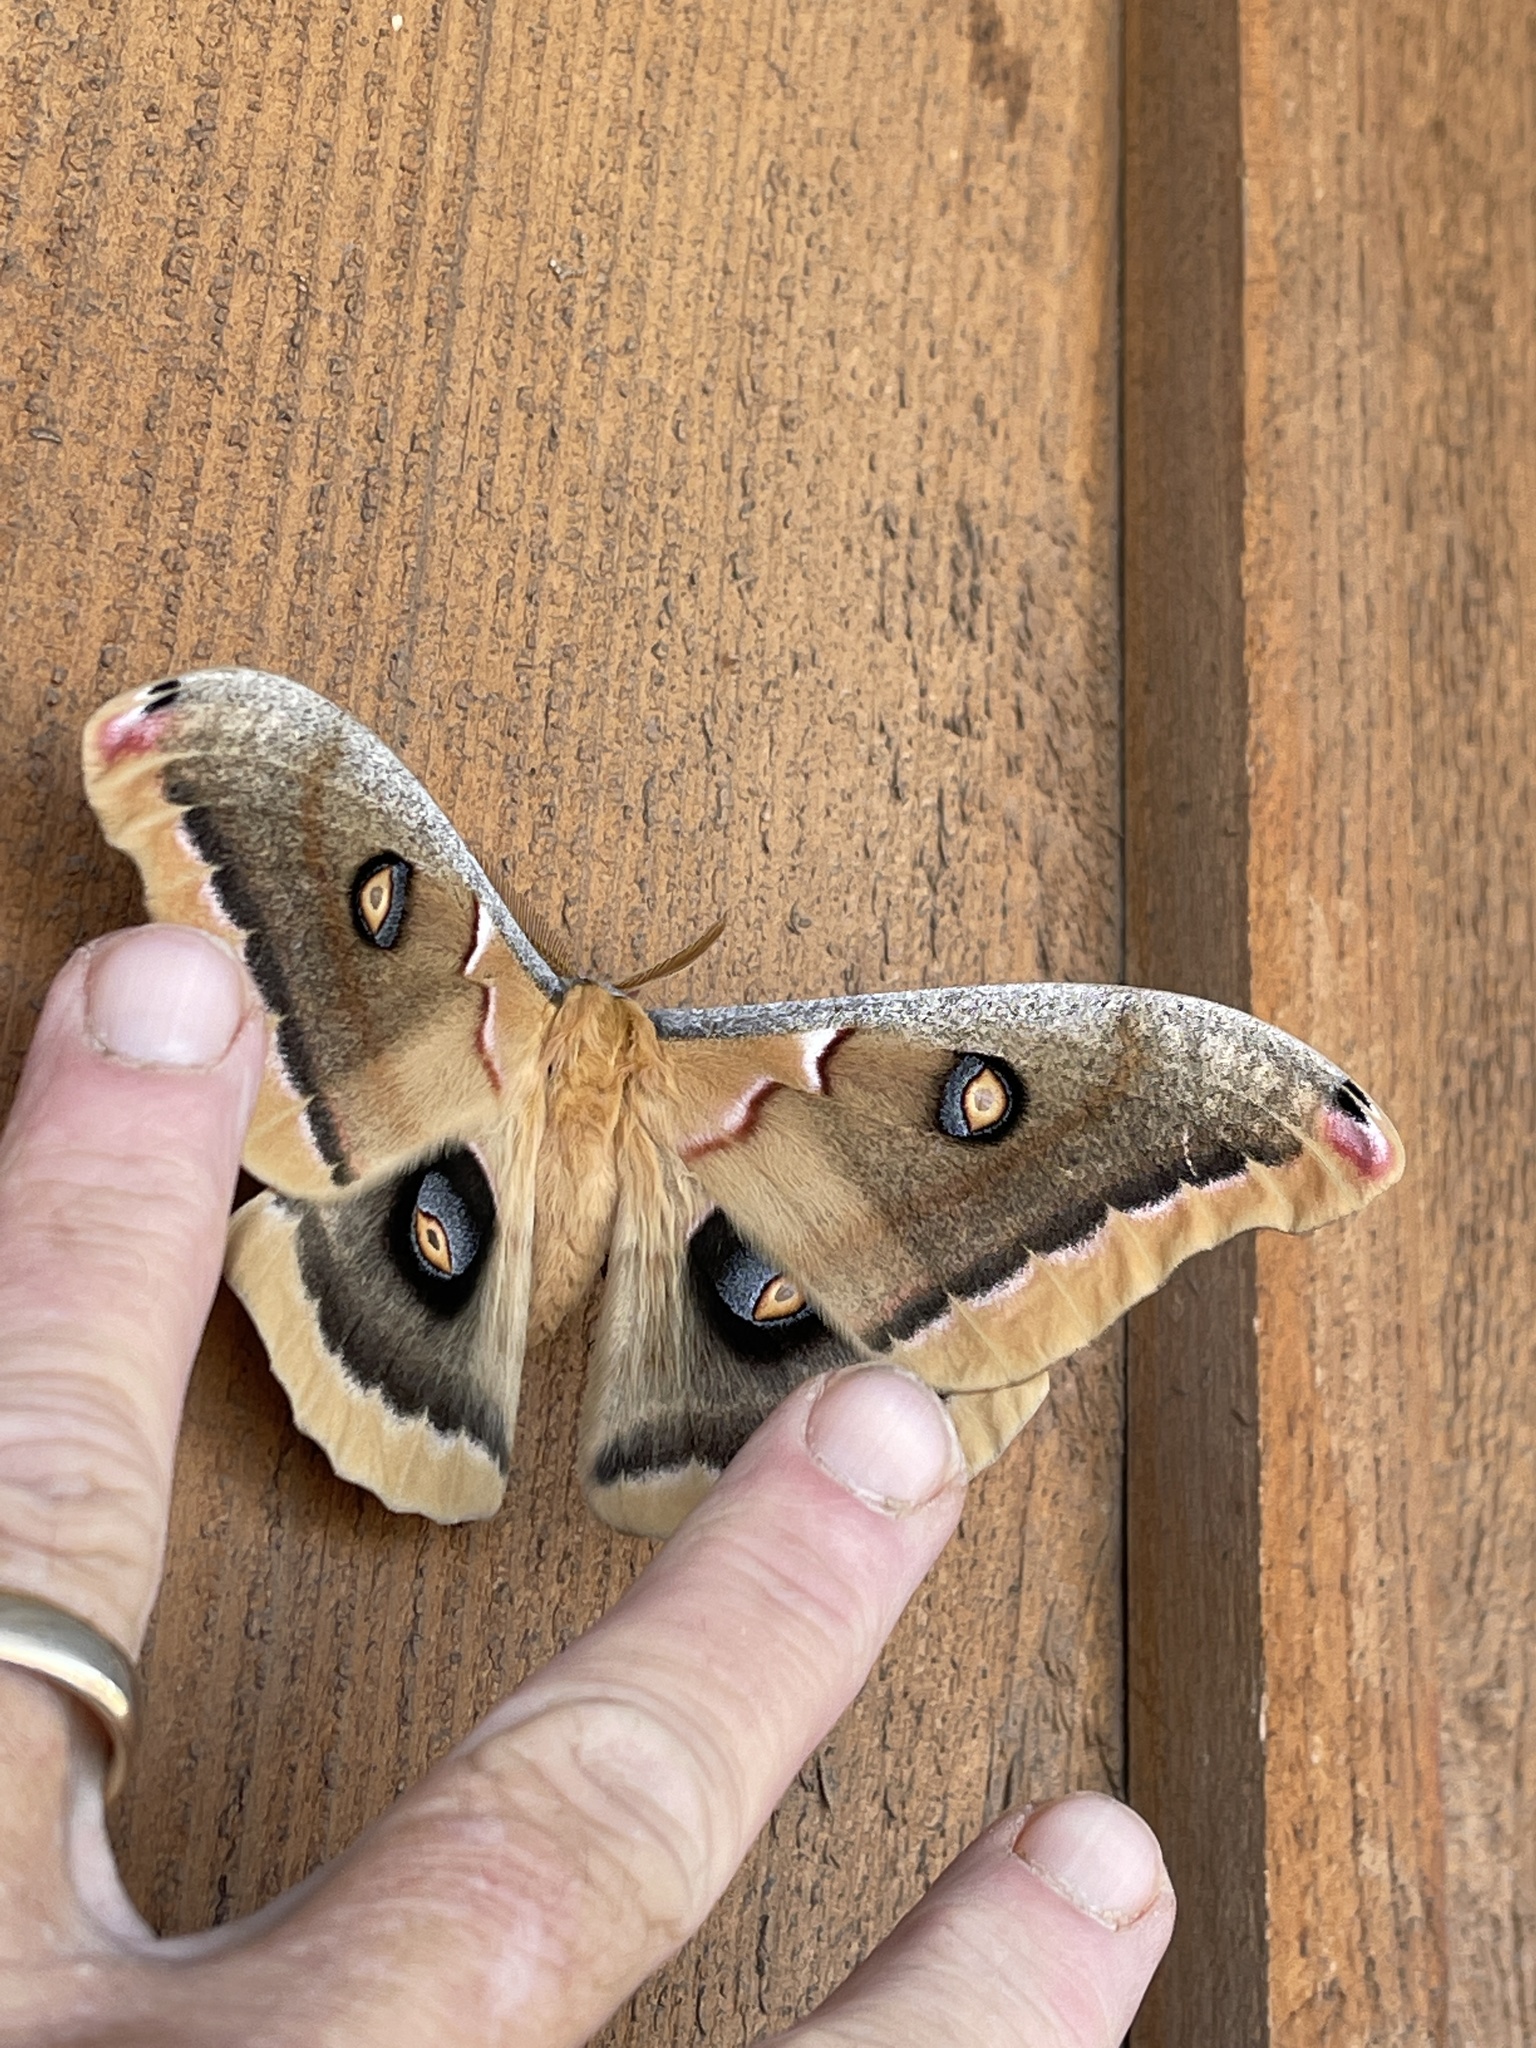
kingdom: Animalia
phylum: Arthropoda
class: Insecta
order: Lepidoptera
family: Saturniidae
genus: Antheraea
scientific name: Antheraea oculea
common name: Arizona polyphemus moth
